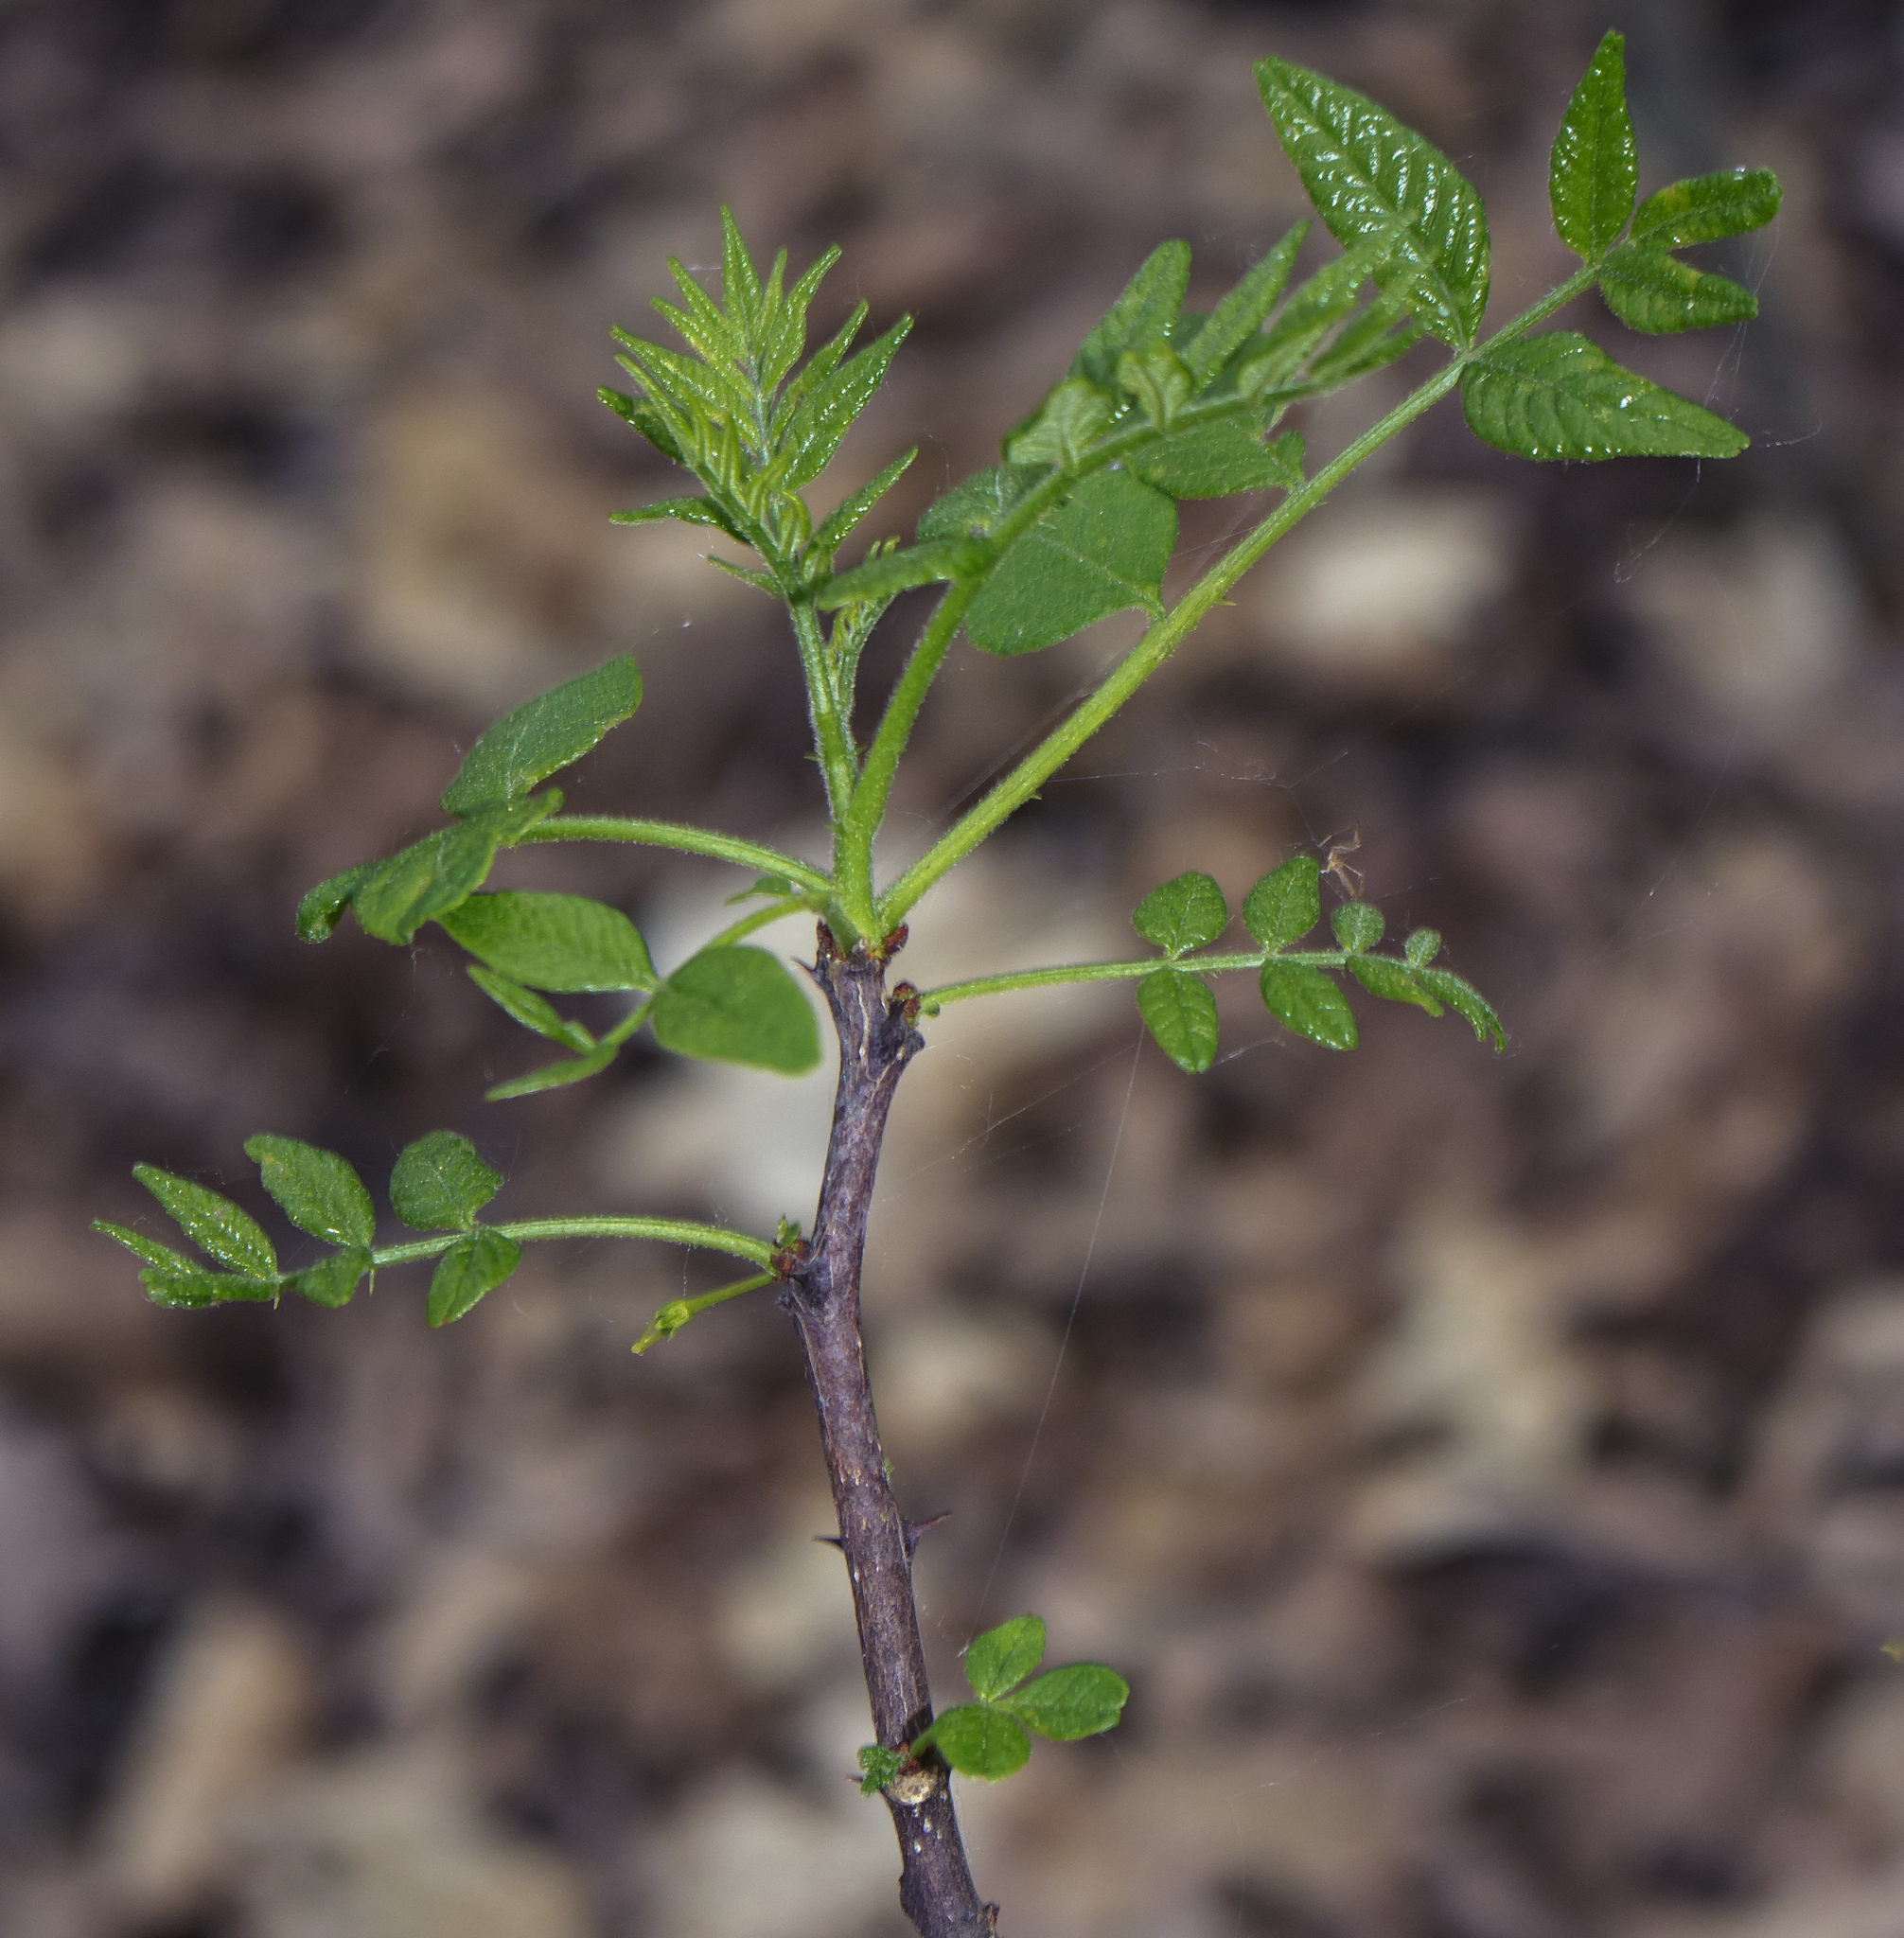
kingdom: Plantae
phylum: Tracheophyta
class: Magnoliopsida
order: Sapindales
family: Rutaceae
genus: Zanthoxylum
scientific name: Zanthoxylum americanum
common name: Northern prickly-ash
